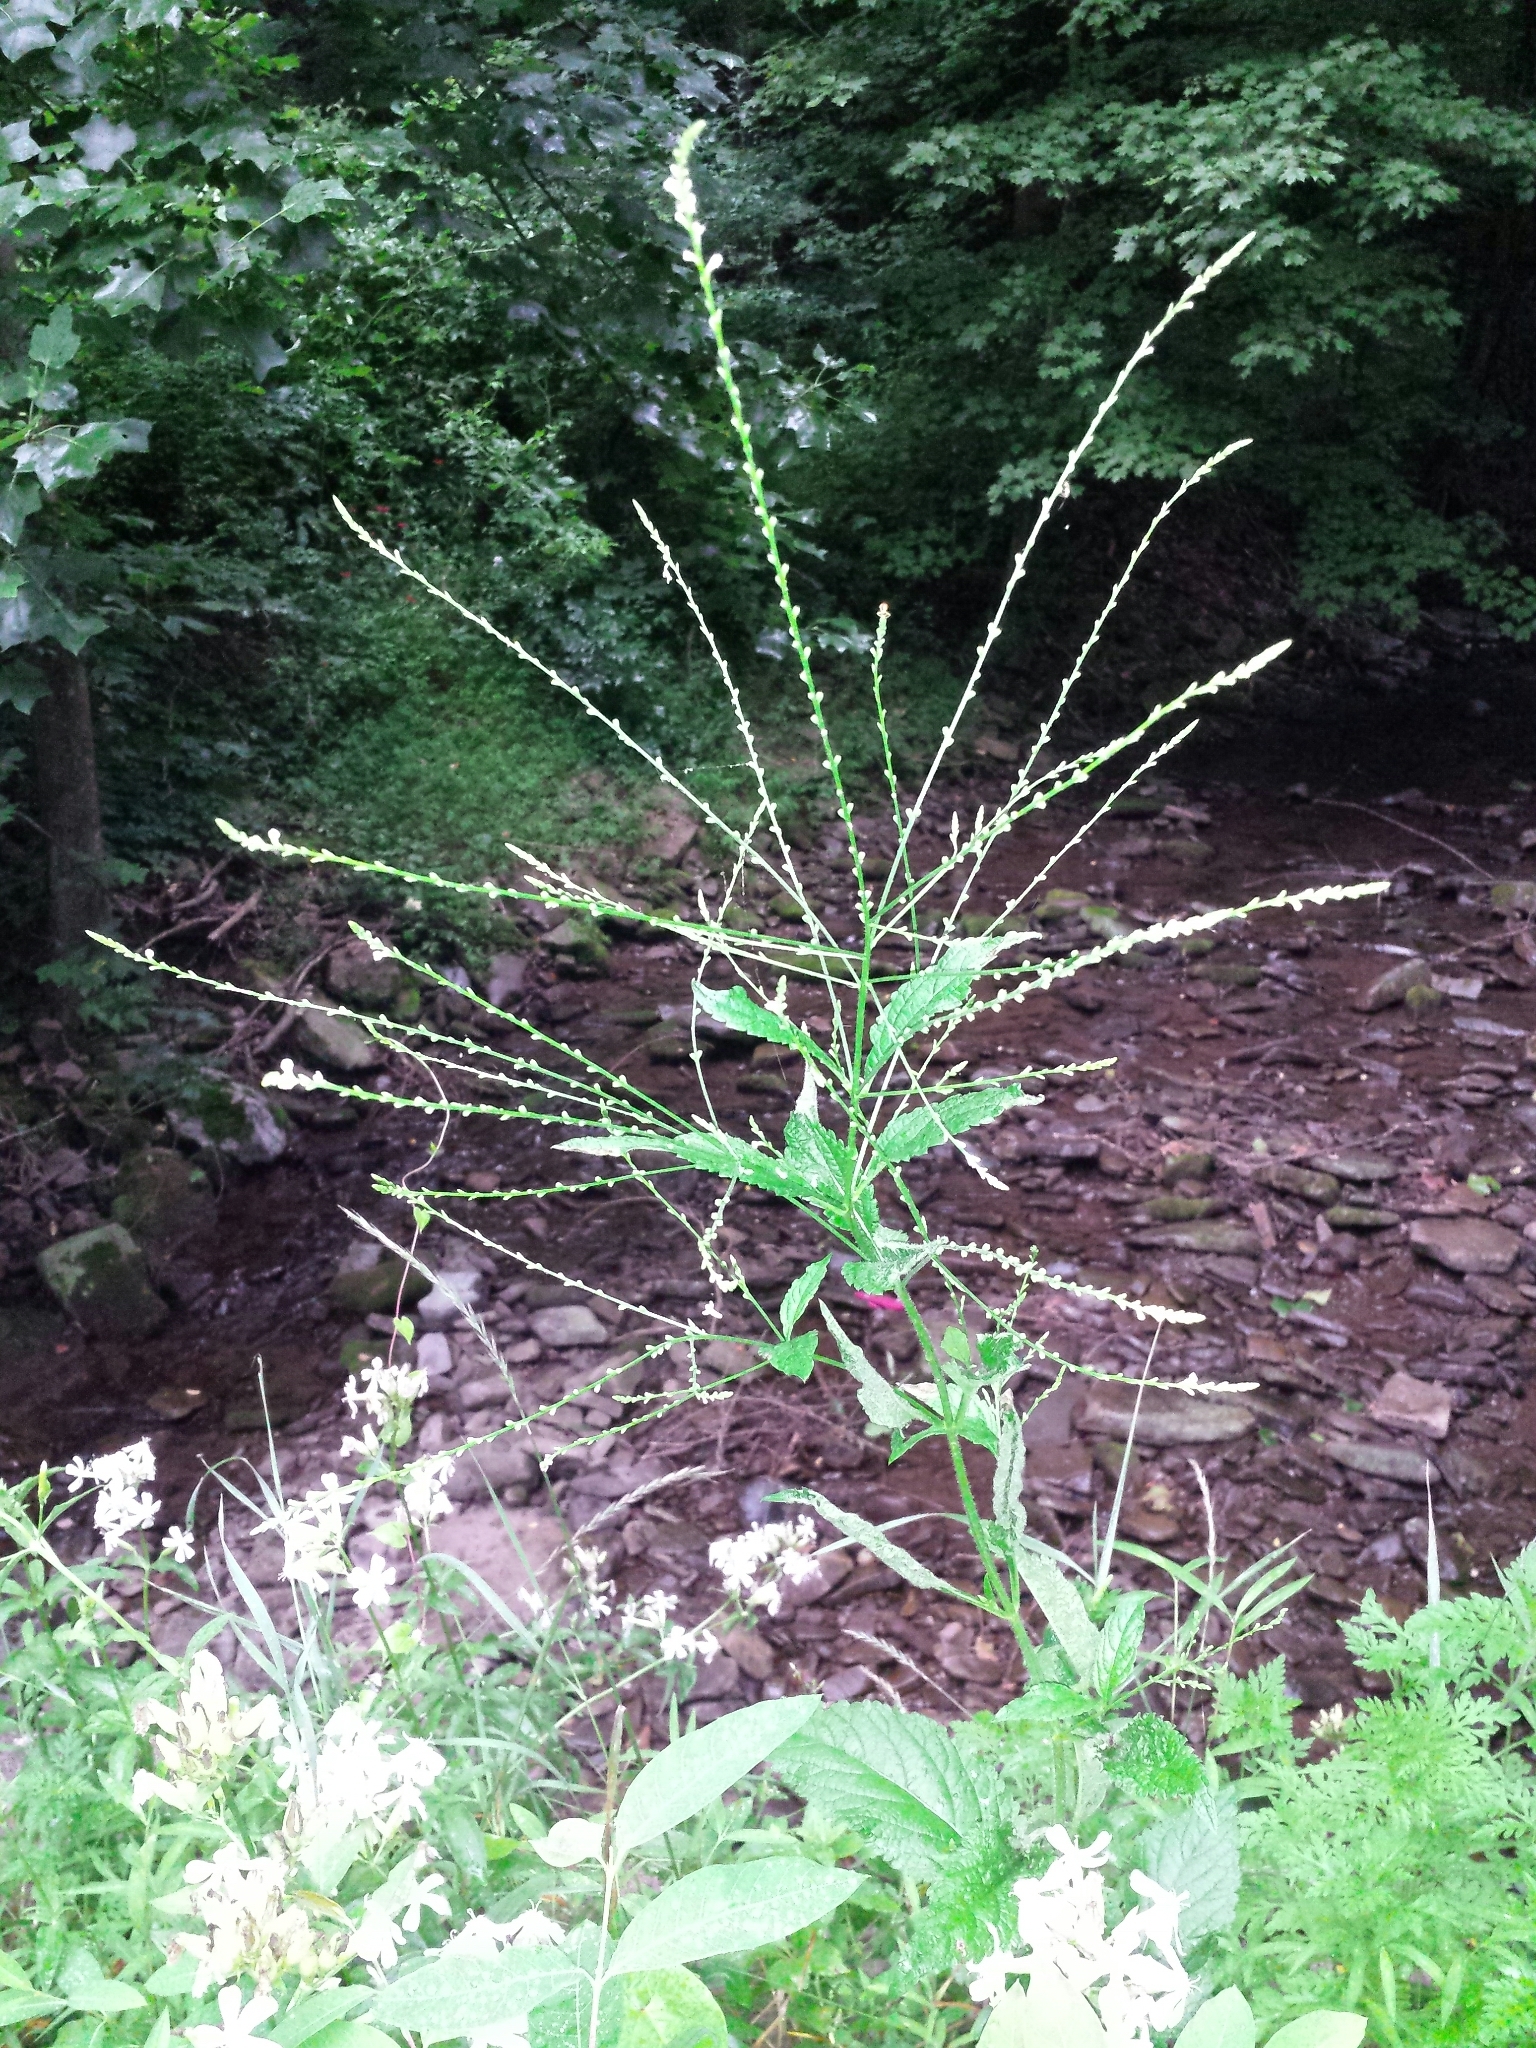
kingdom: Plantae
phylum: Tracheophyta
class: Magnoliopsida
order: Lamiales
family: Verbenaceae
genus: Verbena
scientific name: Verbena urticifolia
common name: Nettle-leaved vervain
